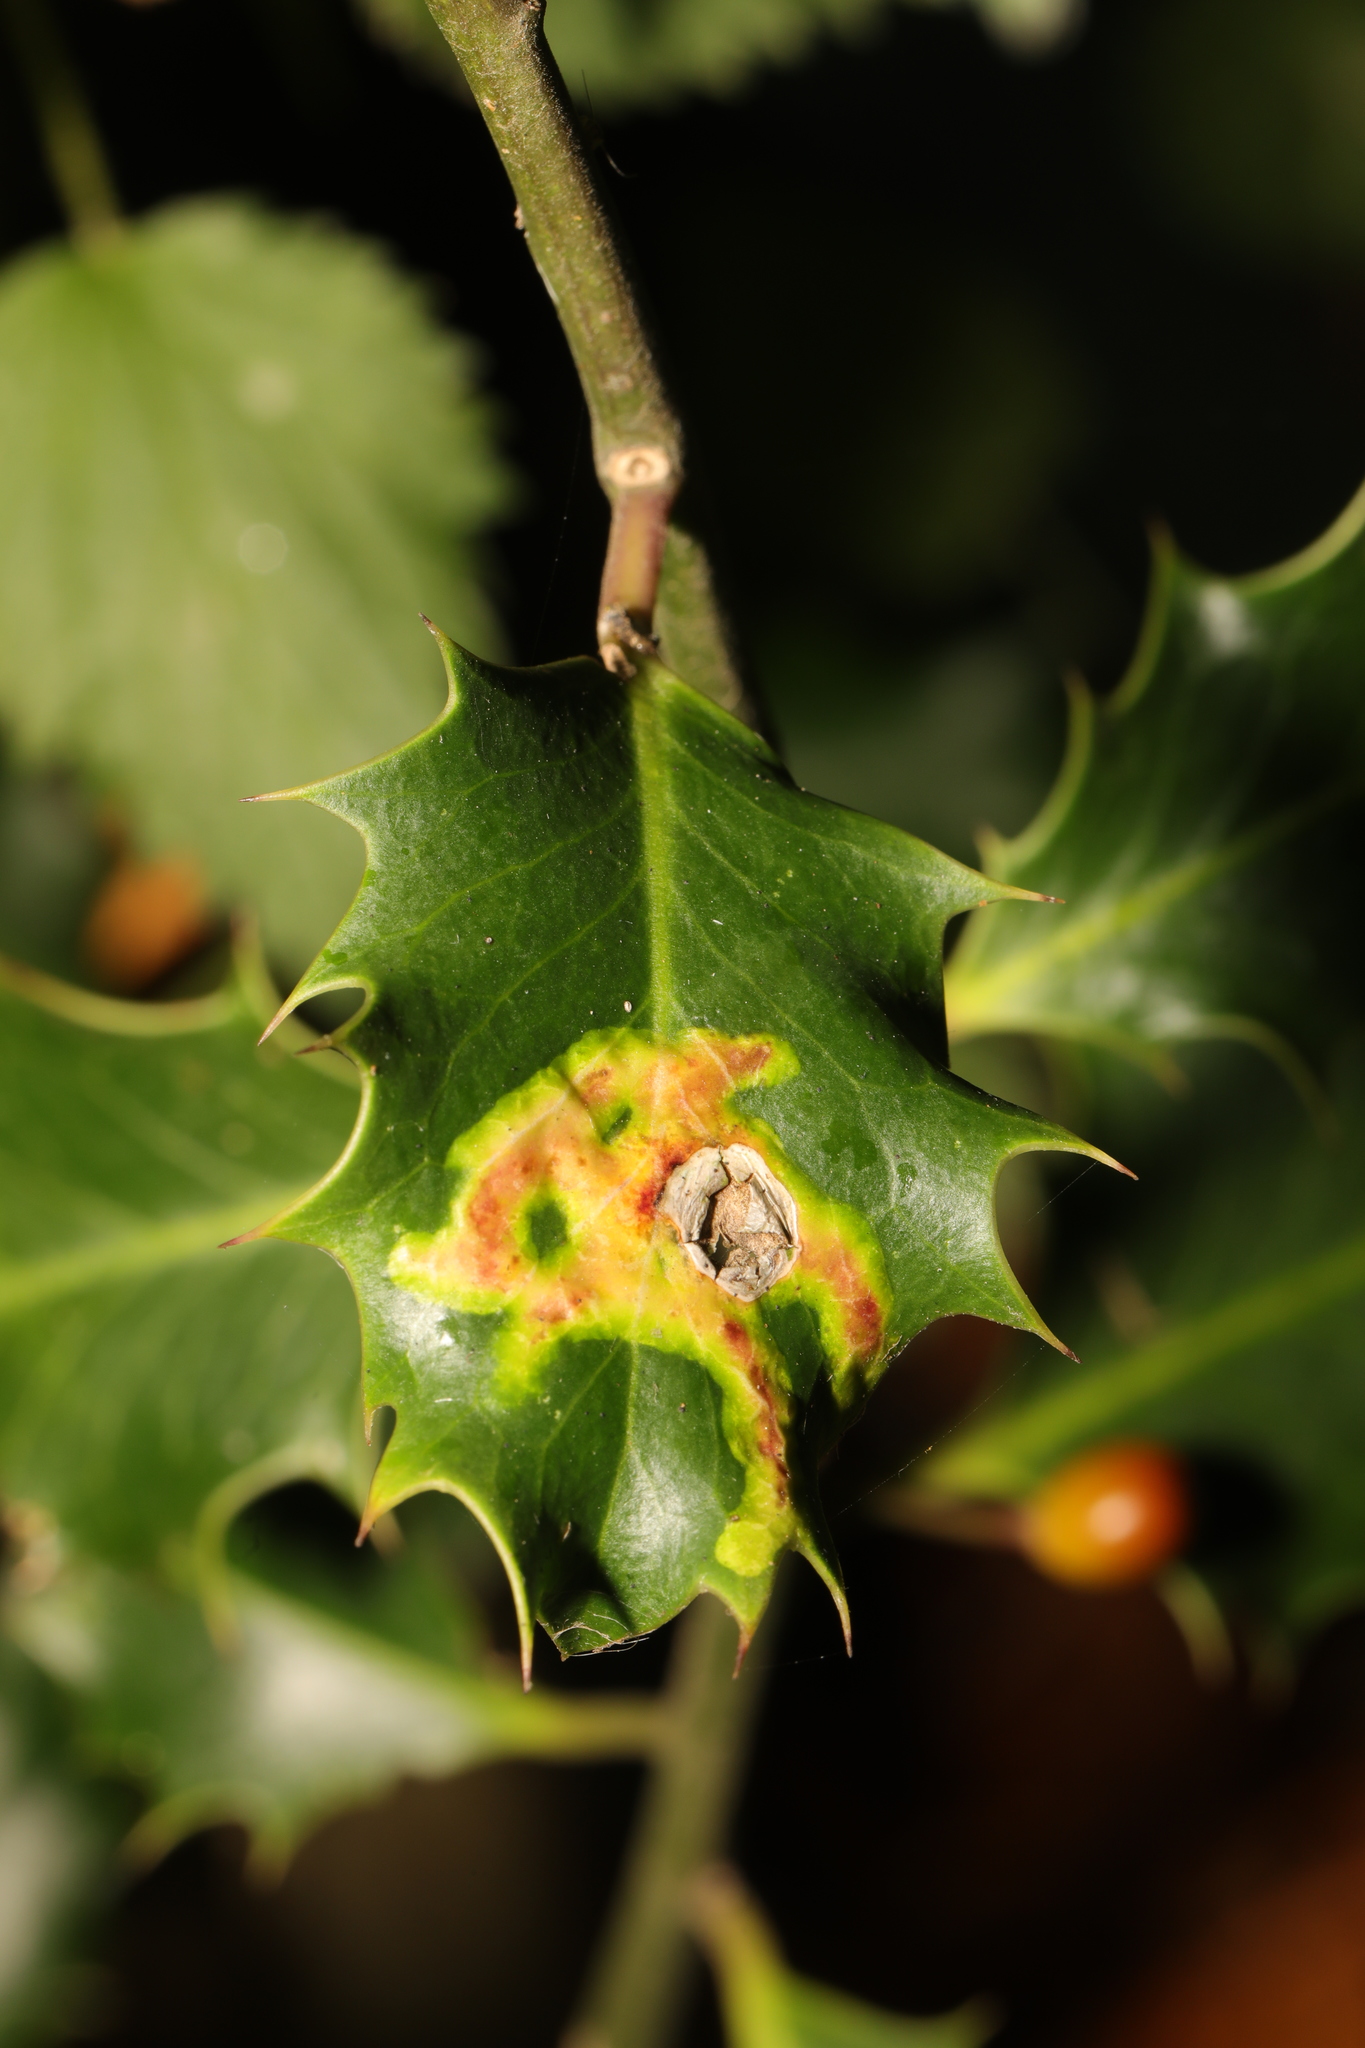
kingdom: Animalia
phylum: Arthropoda
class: Insecta
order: Diptera
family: Agromyzidae
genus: Phytomyza
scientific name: Phytomyza ilicis
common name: Holly leafminer
